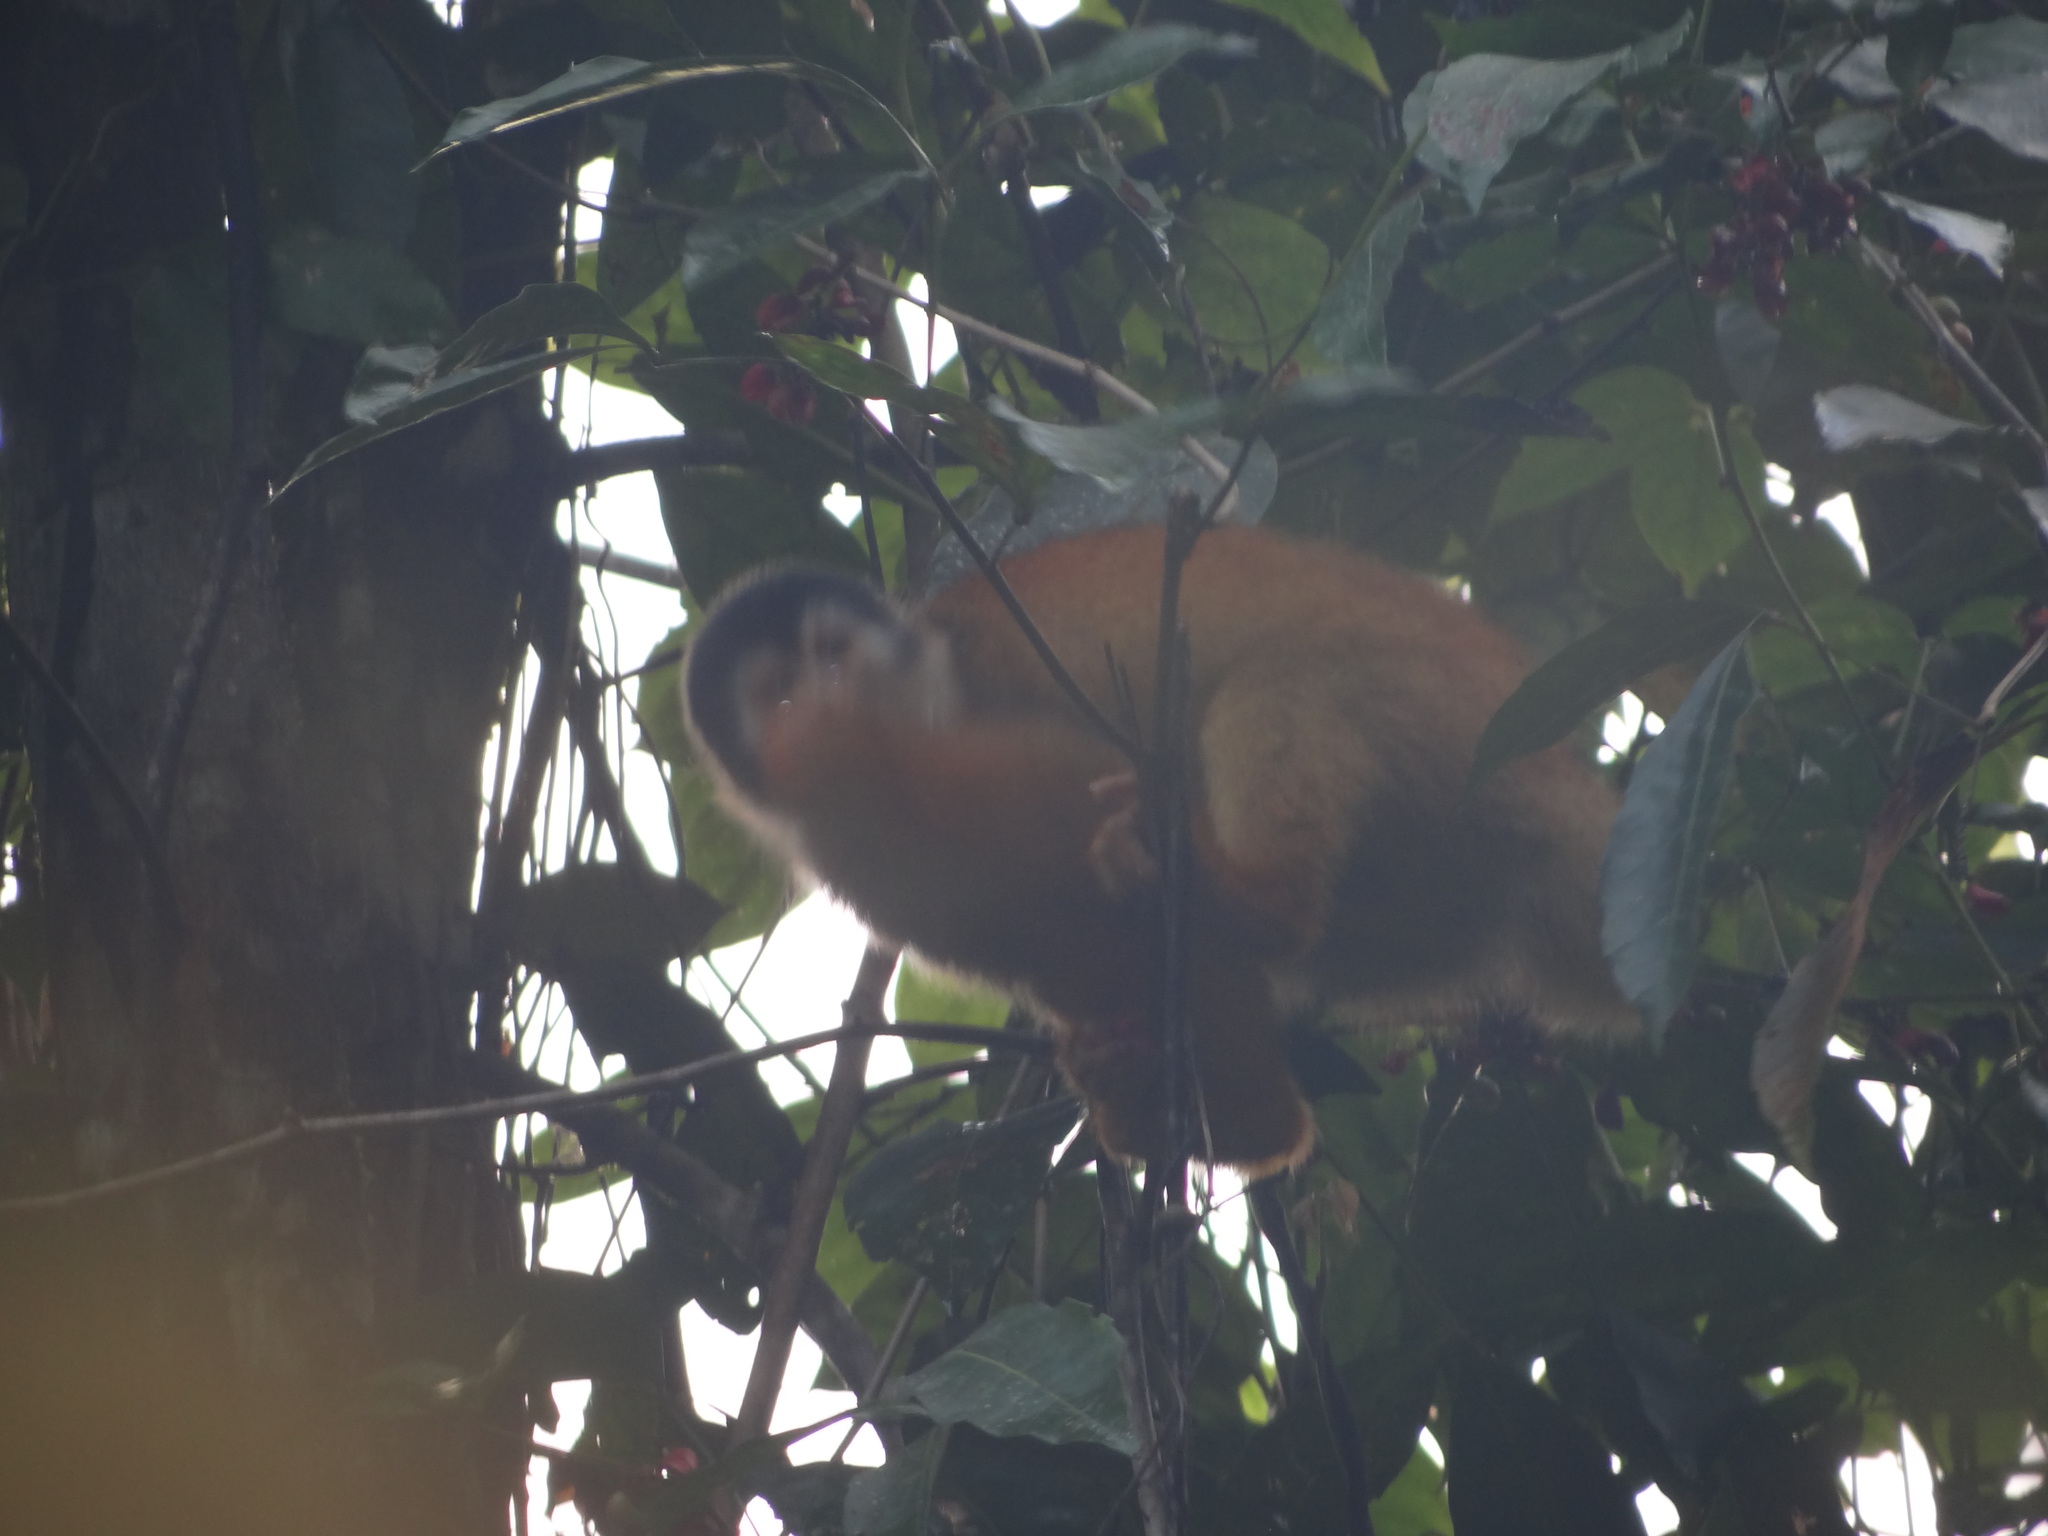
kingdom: Animalia
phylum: Chordata
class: Mammalia
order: Primates
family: Cebidae
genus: Saimiri
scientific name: Saimiri oerstedii
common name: Central american squirrel monkey
